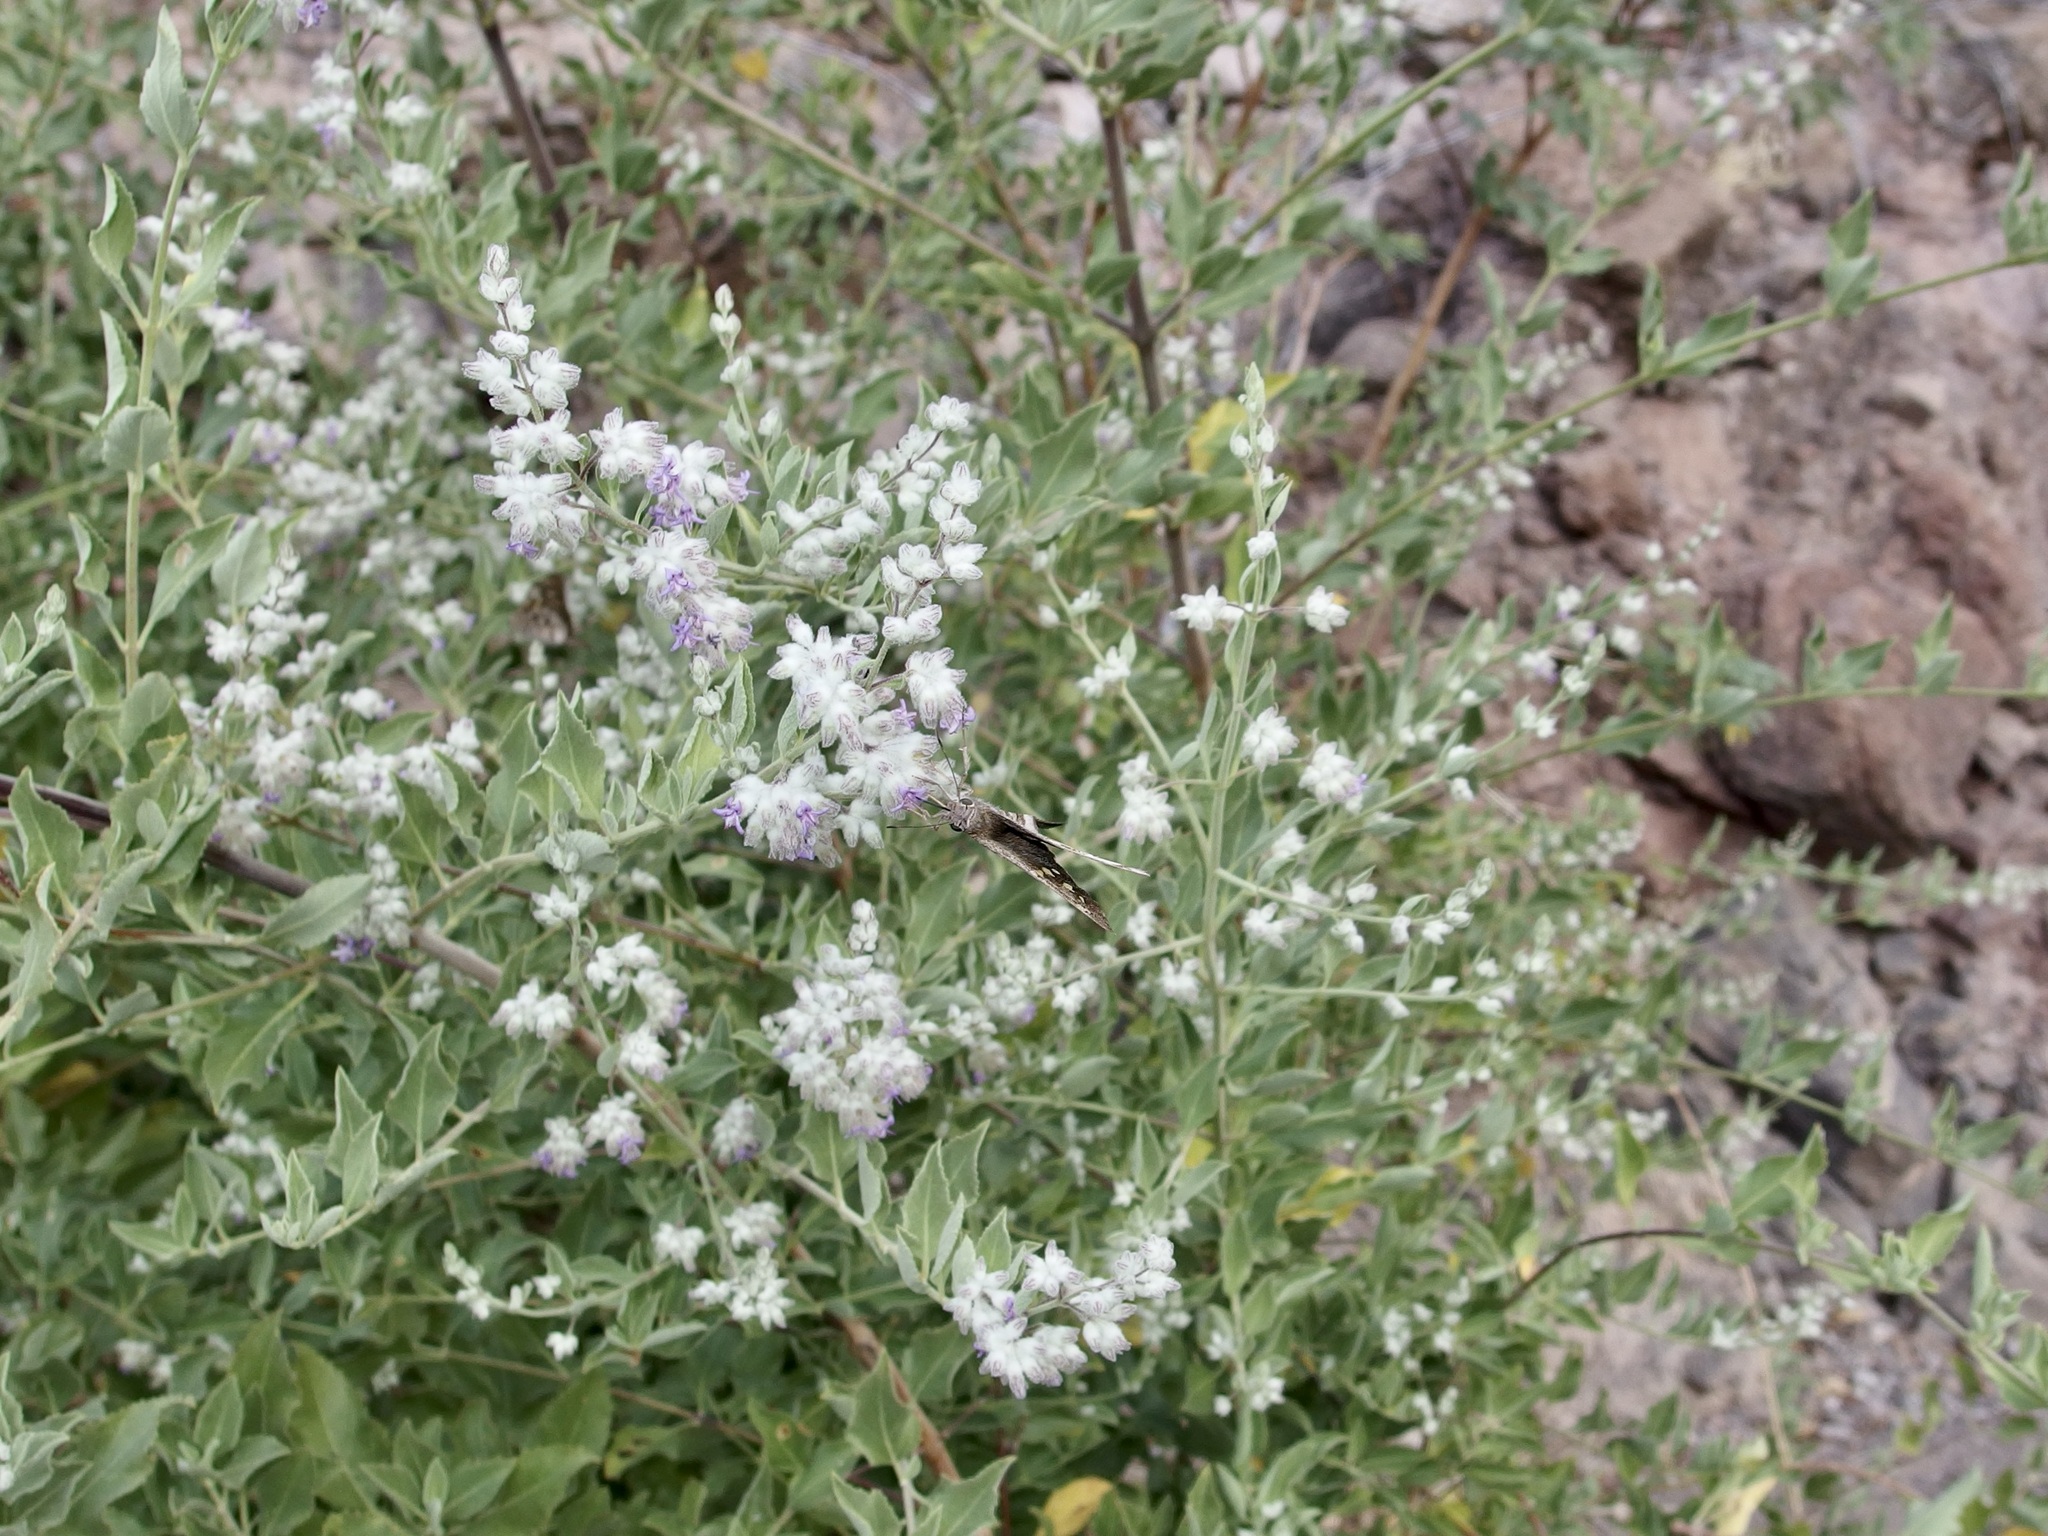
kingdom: Plantae
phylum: Tracheophyta
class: Magnoliopsida
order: Lamiales
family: Lamiaceae
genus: Condea
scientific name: Condea emoryi
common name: Chia
